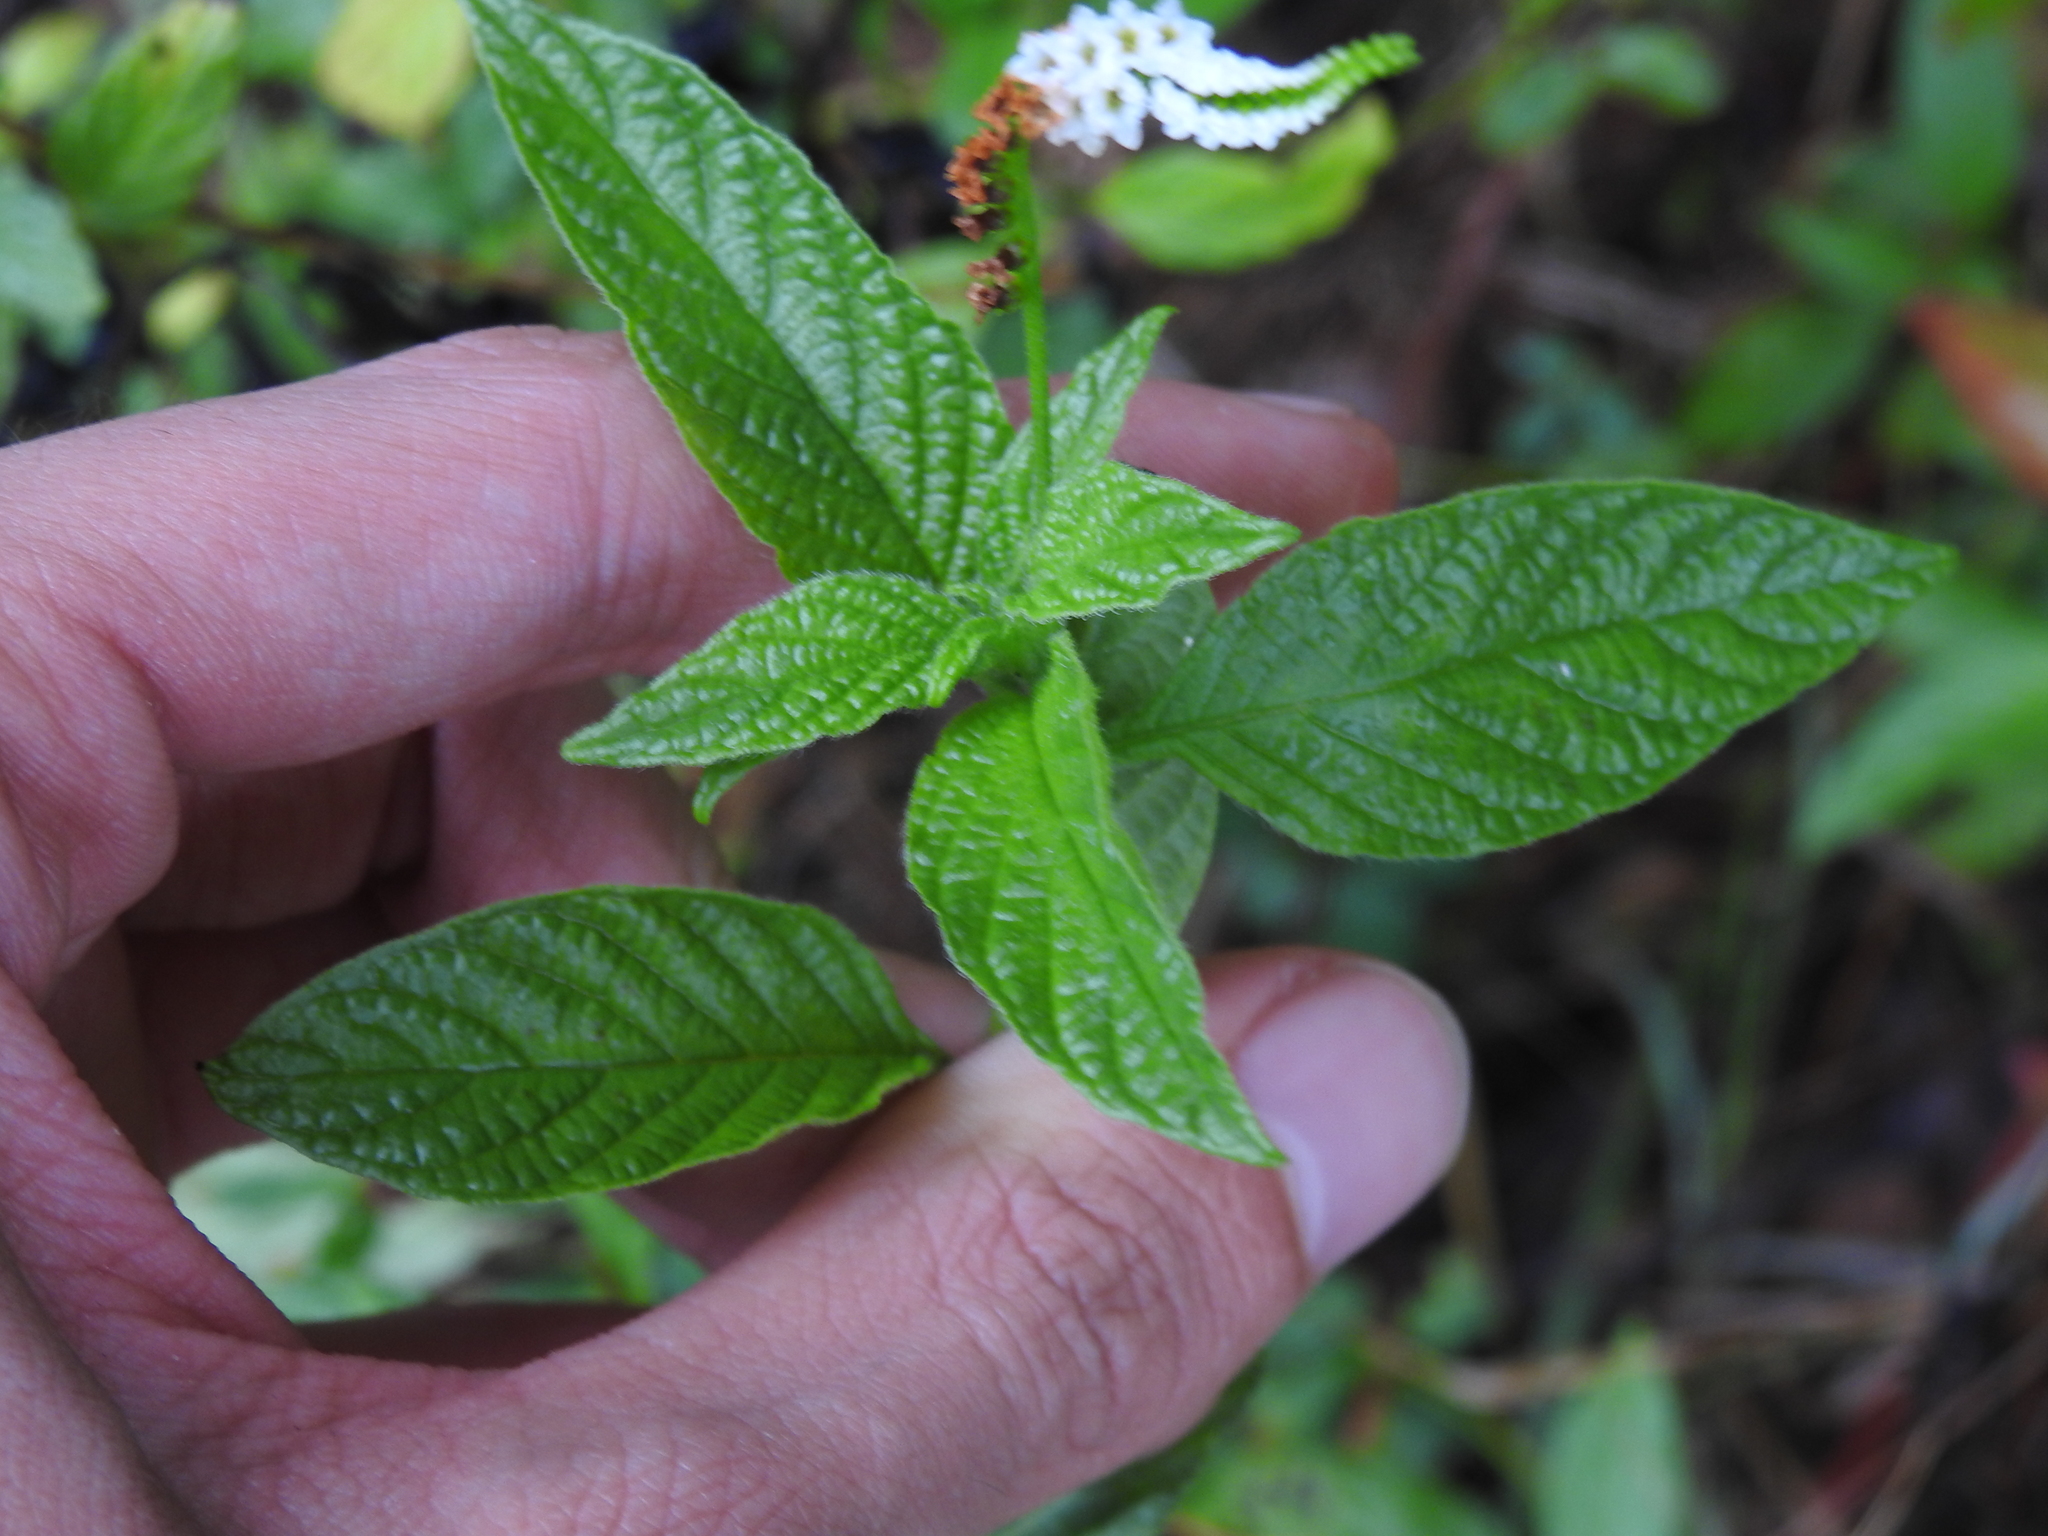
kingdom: Plantae
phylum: Tracheophyta
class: Magnoliopsida
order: Boraginales
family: Heliotropiaceae
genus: Heliotropium
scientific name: Heliotropium angiospermum
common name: Eye bright
